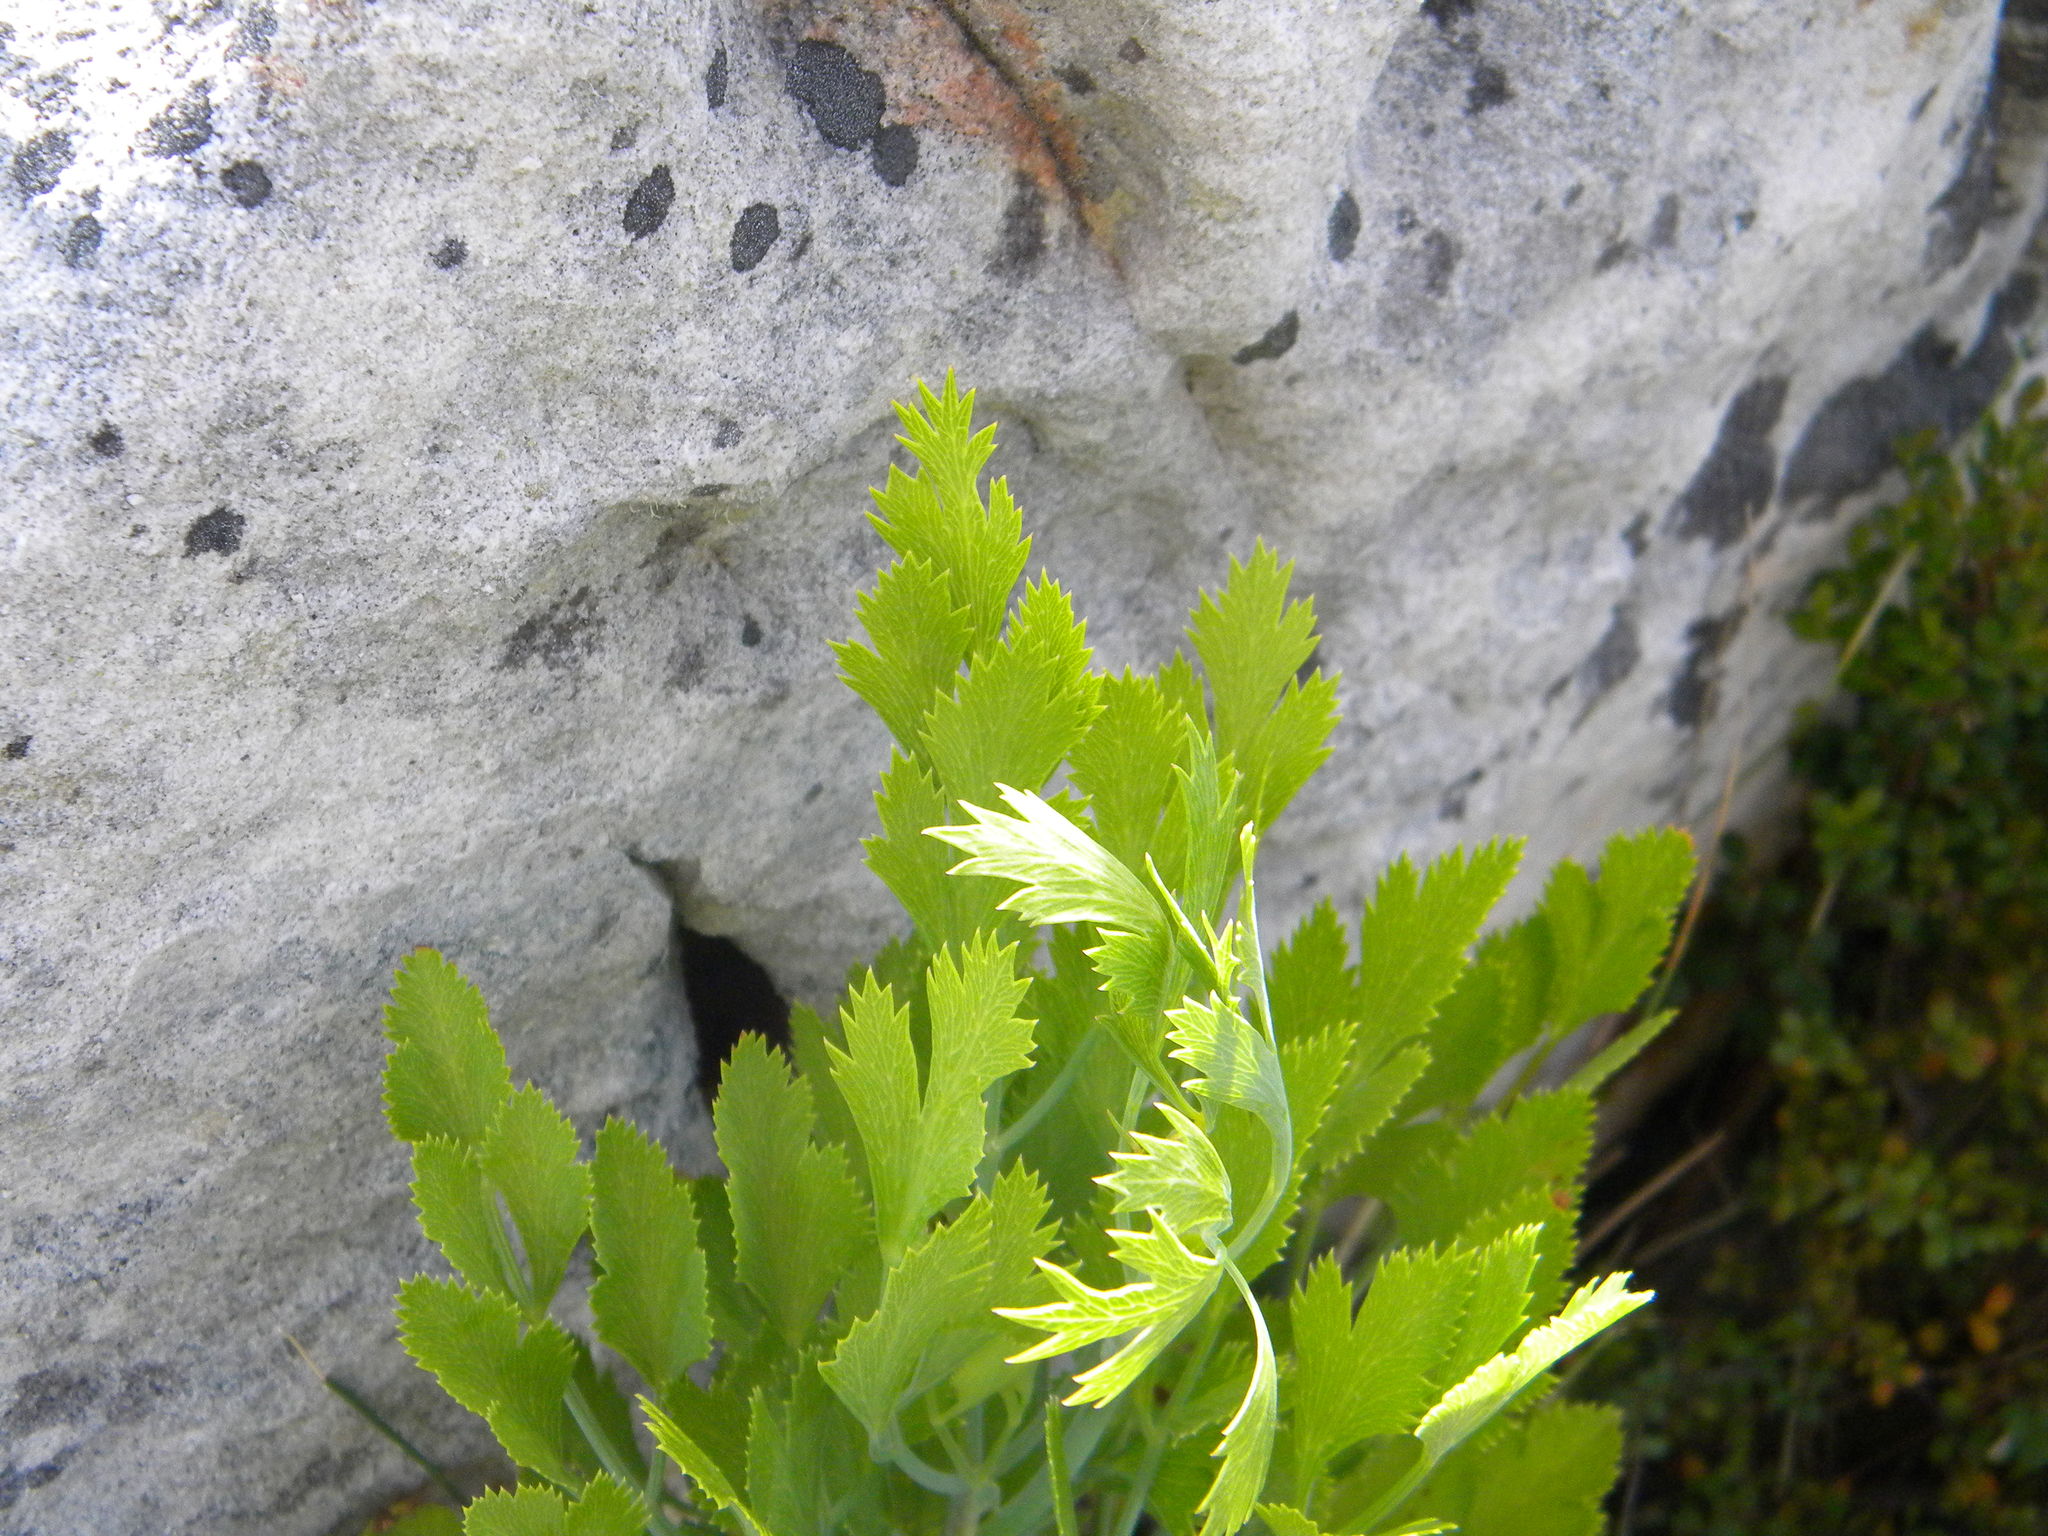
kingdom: Plantae
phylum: Tracheophyta
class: Magnoliopsida
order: Apiales
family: Apiaceae
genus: Notobubon
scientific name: Notobubon galbanum
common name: Blisterbush
